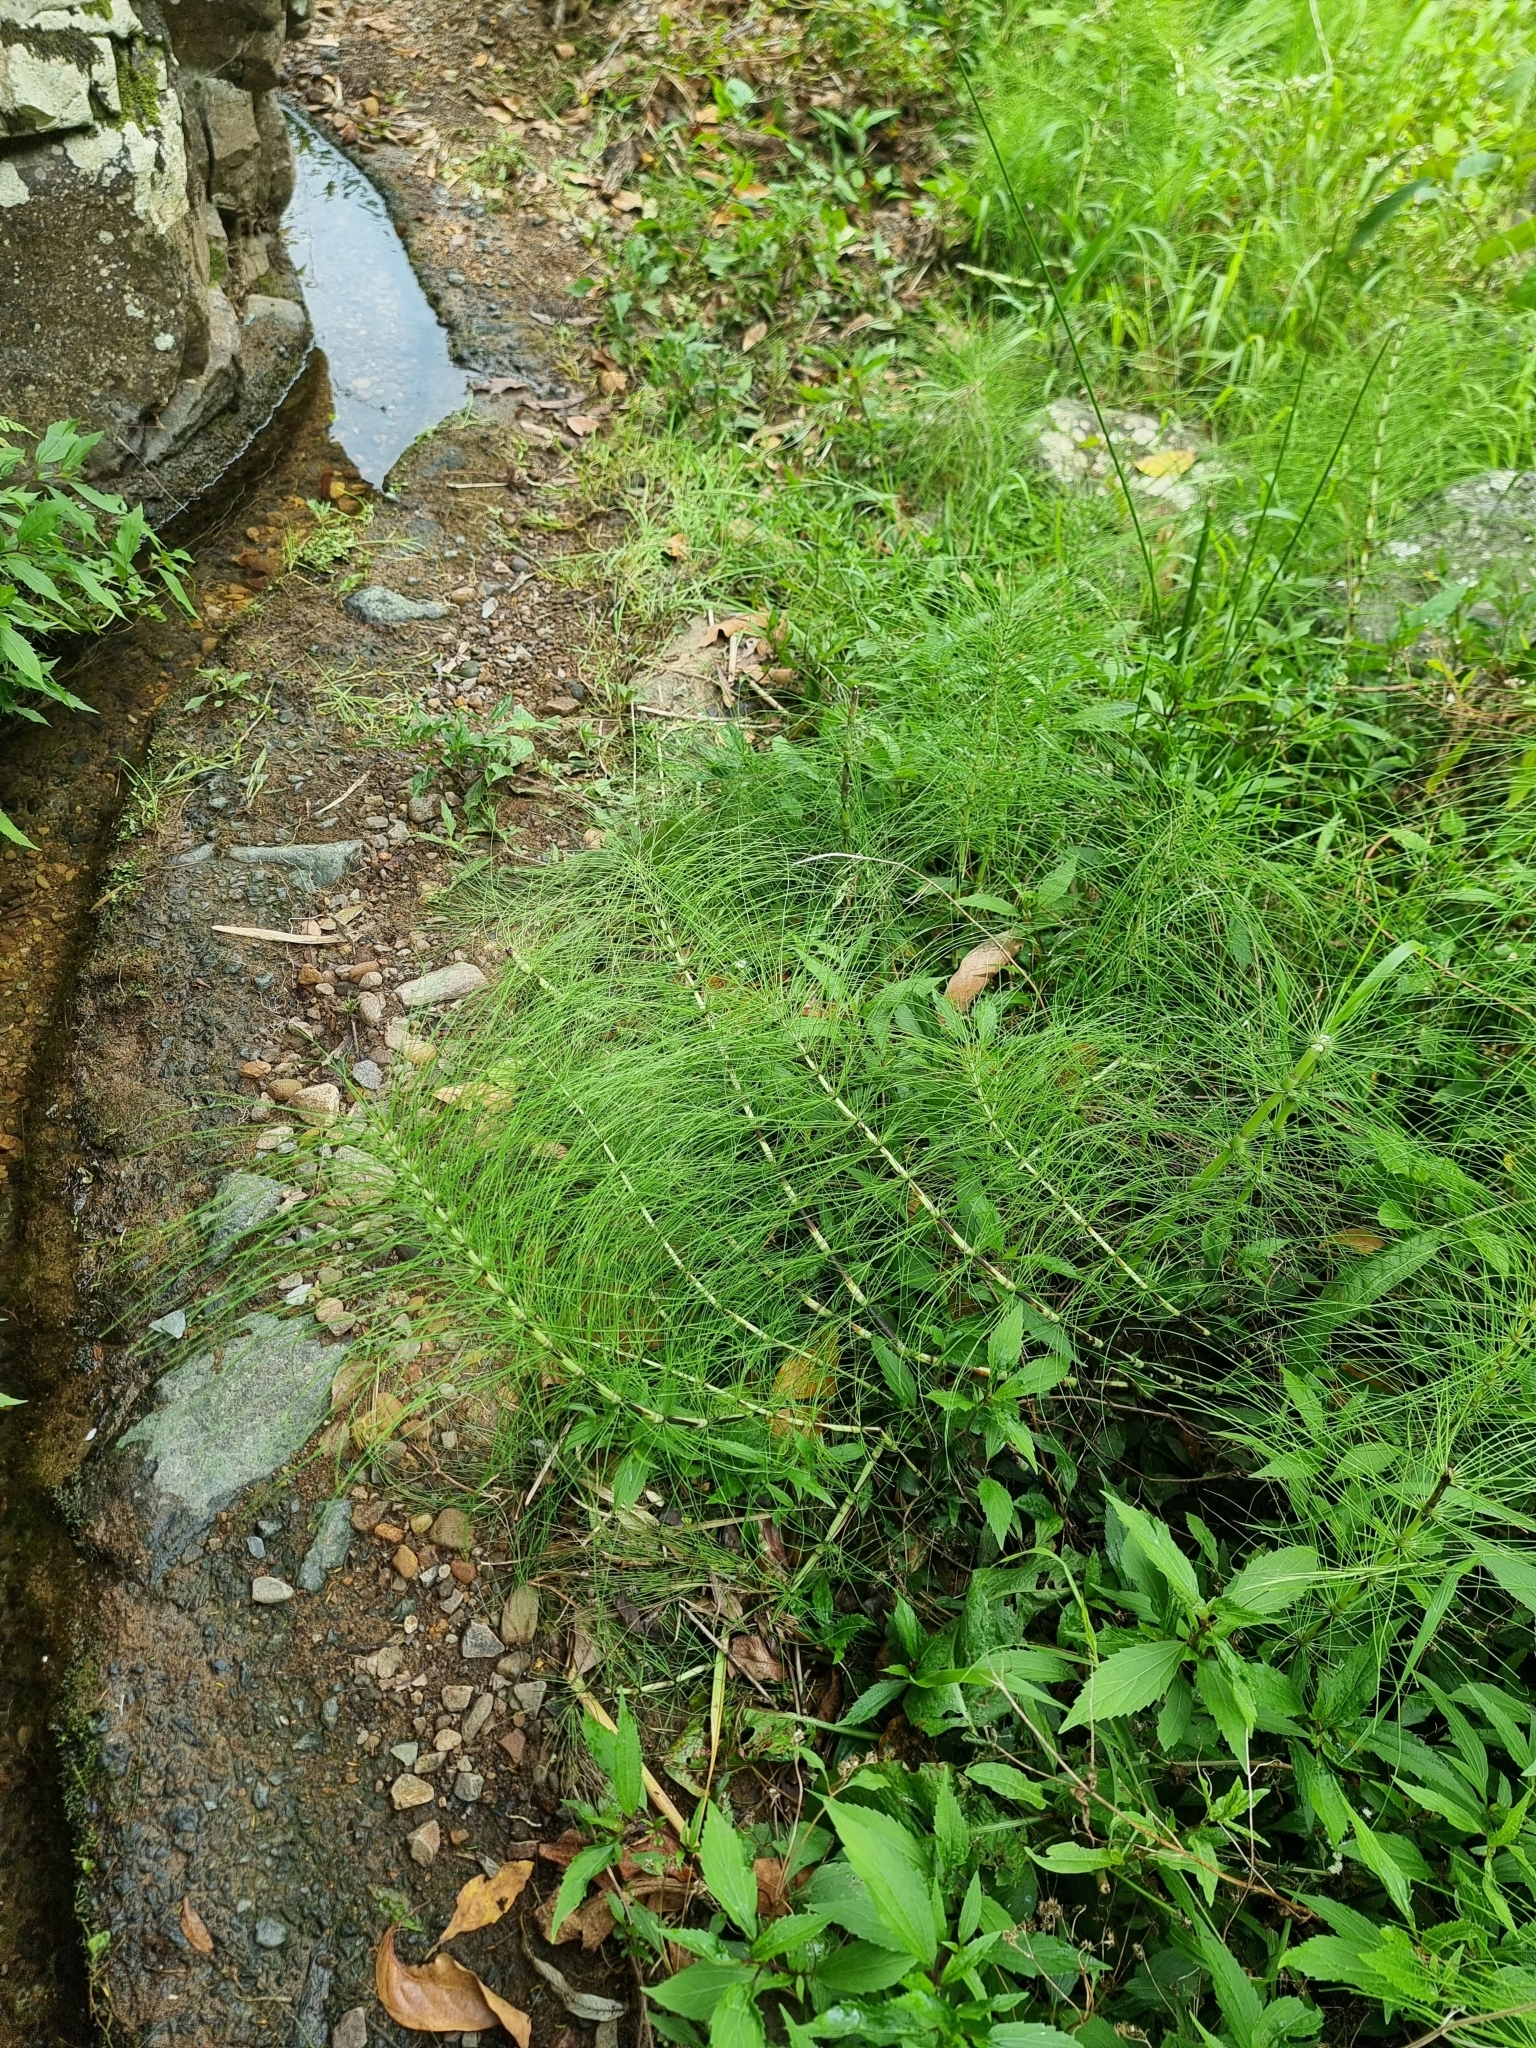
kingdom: Plantae
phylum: Tracheophyta
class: Polypodiopsida
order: Equisetales
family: Equisetaceae
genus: Equisetum
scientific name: Equisetum telmateia
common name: Great horsetail
